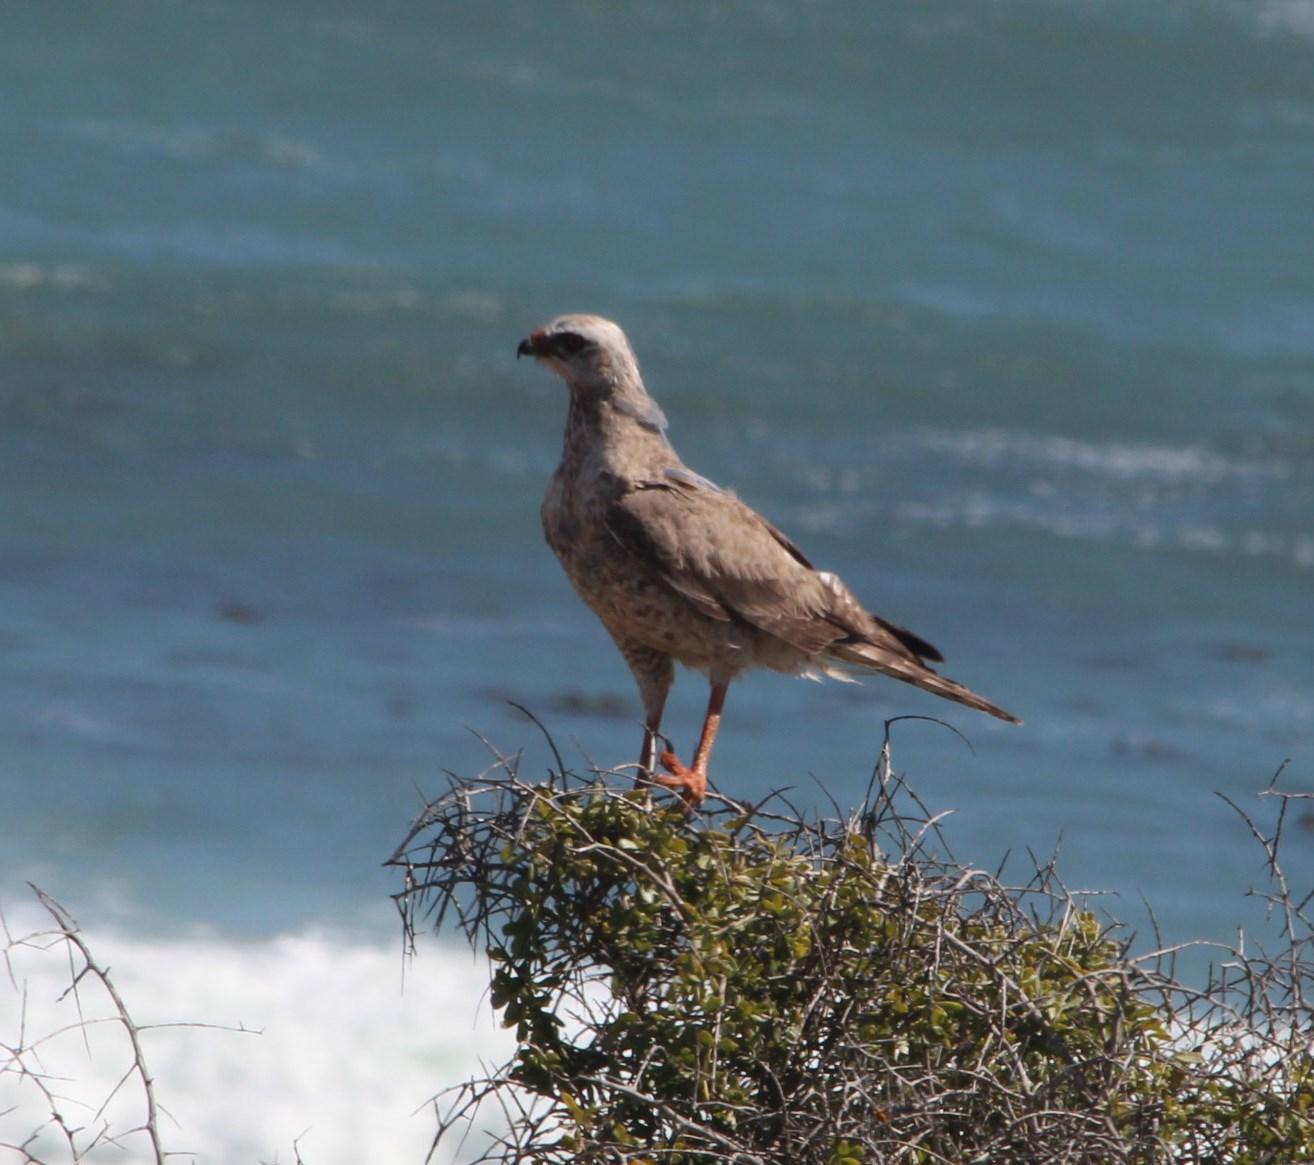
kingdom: Animalia
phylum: Chordata
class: Aves
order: Accipitriformes
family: Accipitridae
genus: Melierax
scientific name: Melierax canorus
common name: Pale chanting-goshawk
